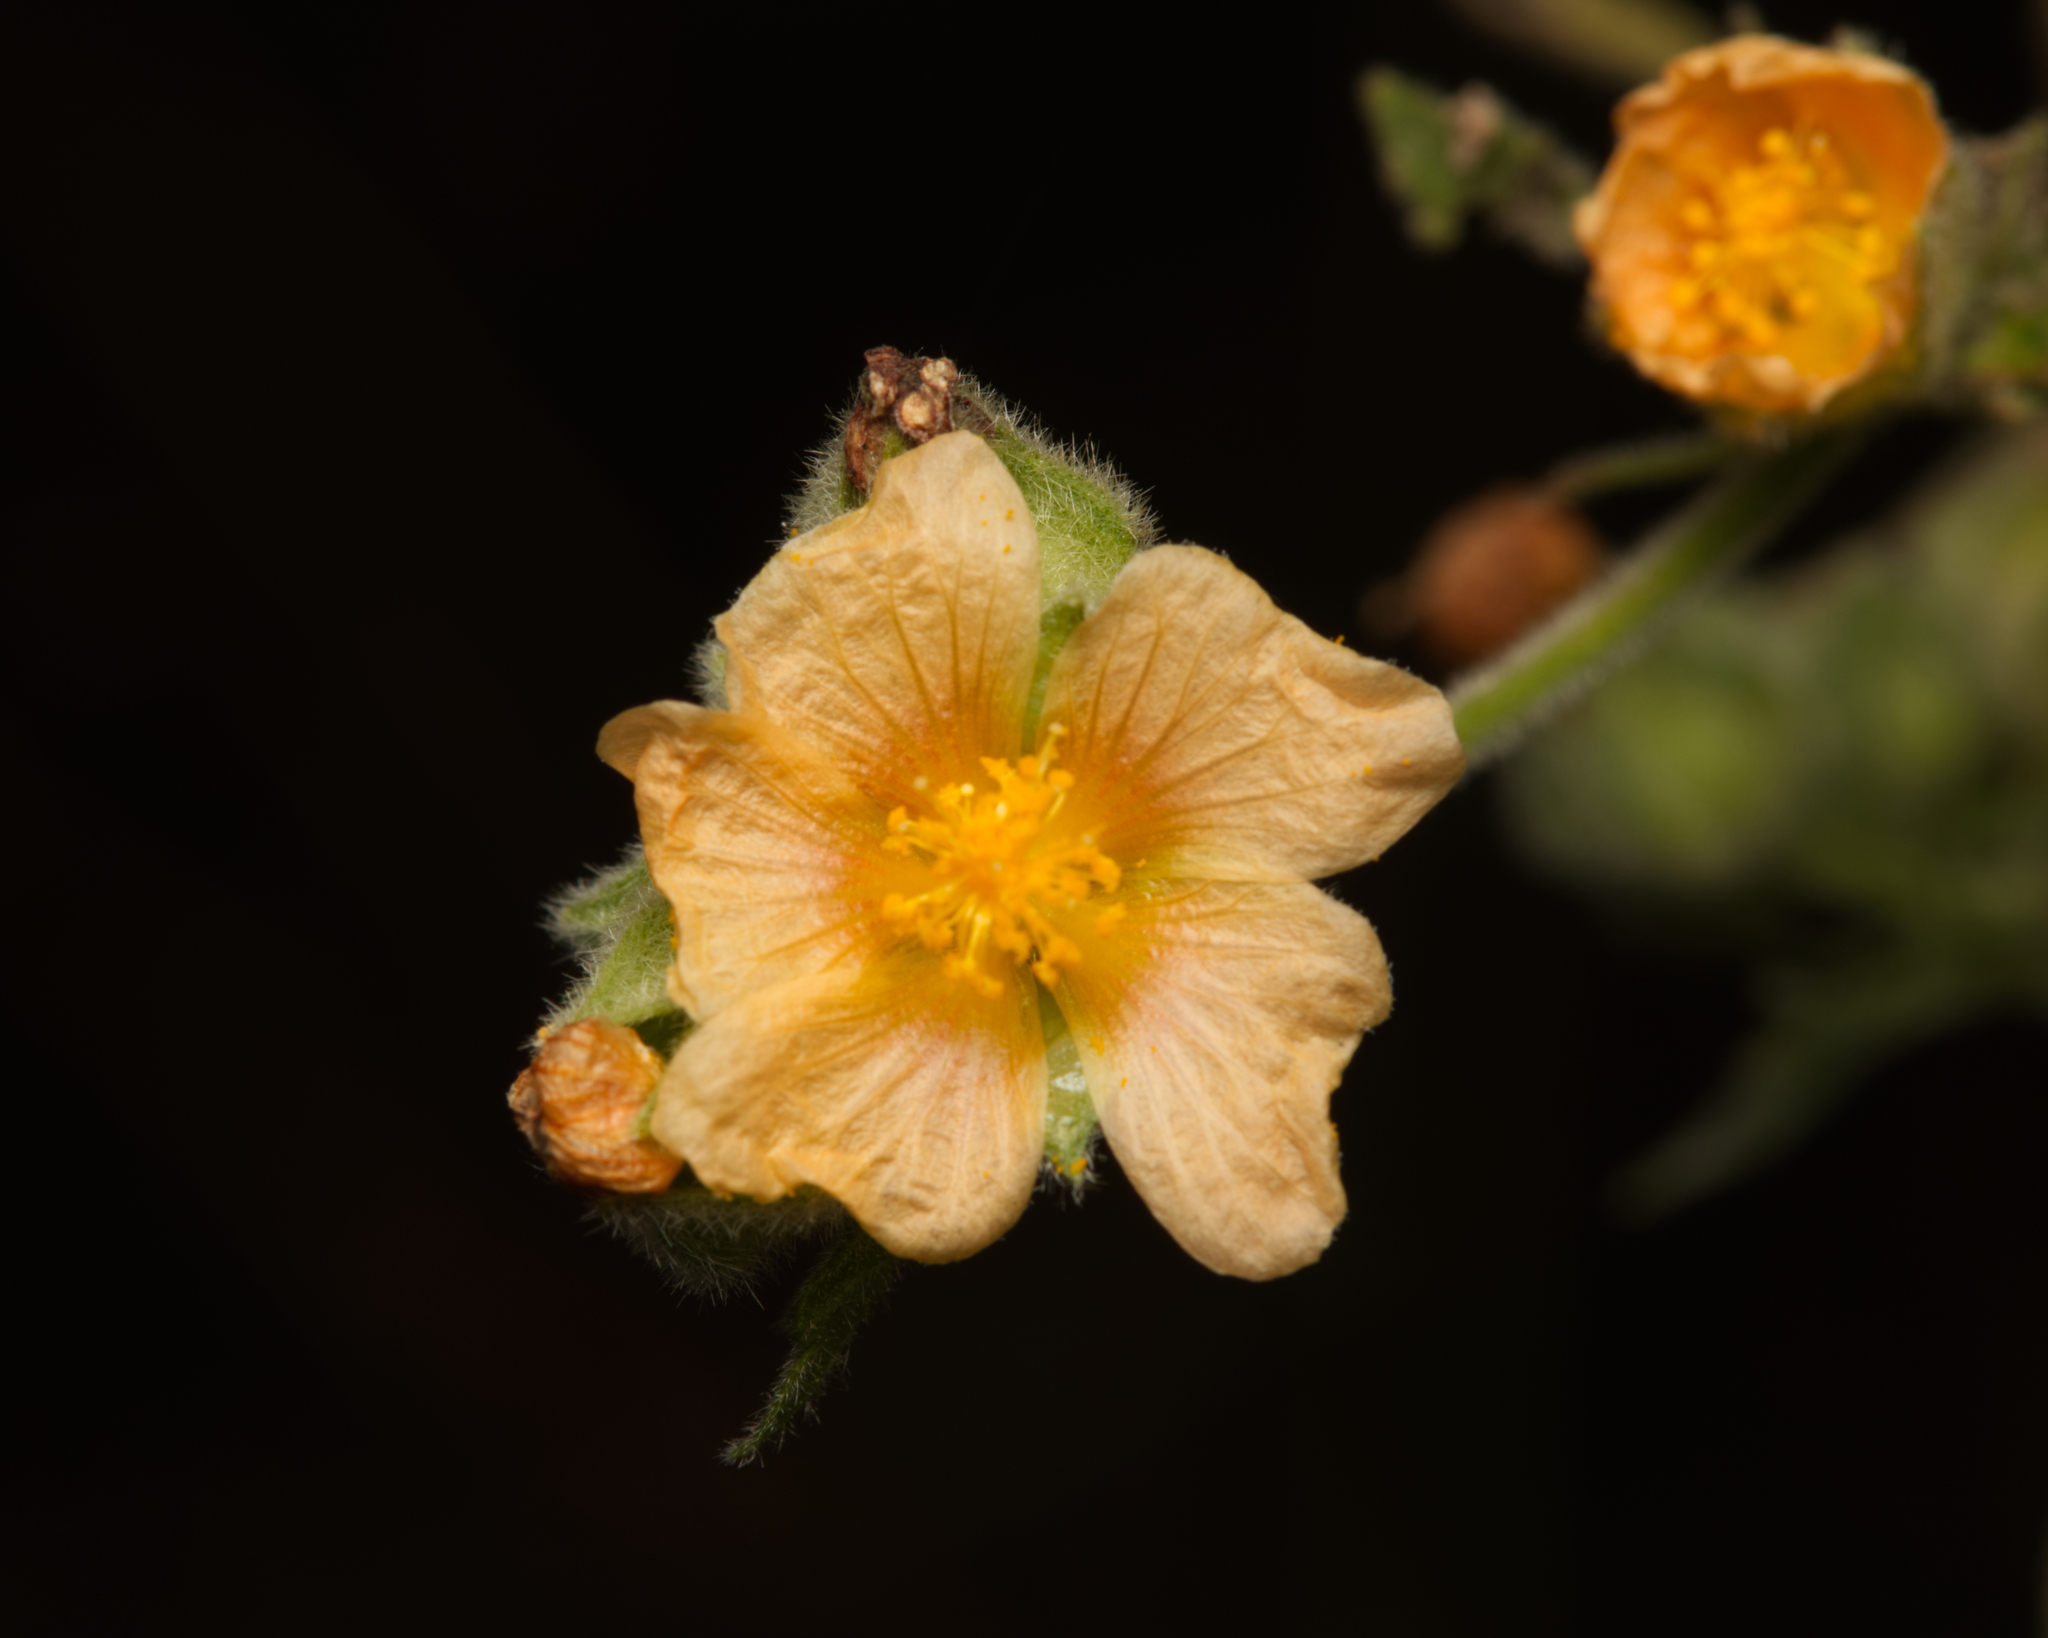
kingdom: Plantae
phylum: Tracheophyta
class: Magnoliopsida
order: Malvales
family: Malvaceae
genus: Sida
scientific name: Sida cordifolia
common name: Ilima
